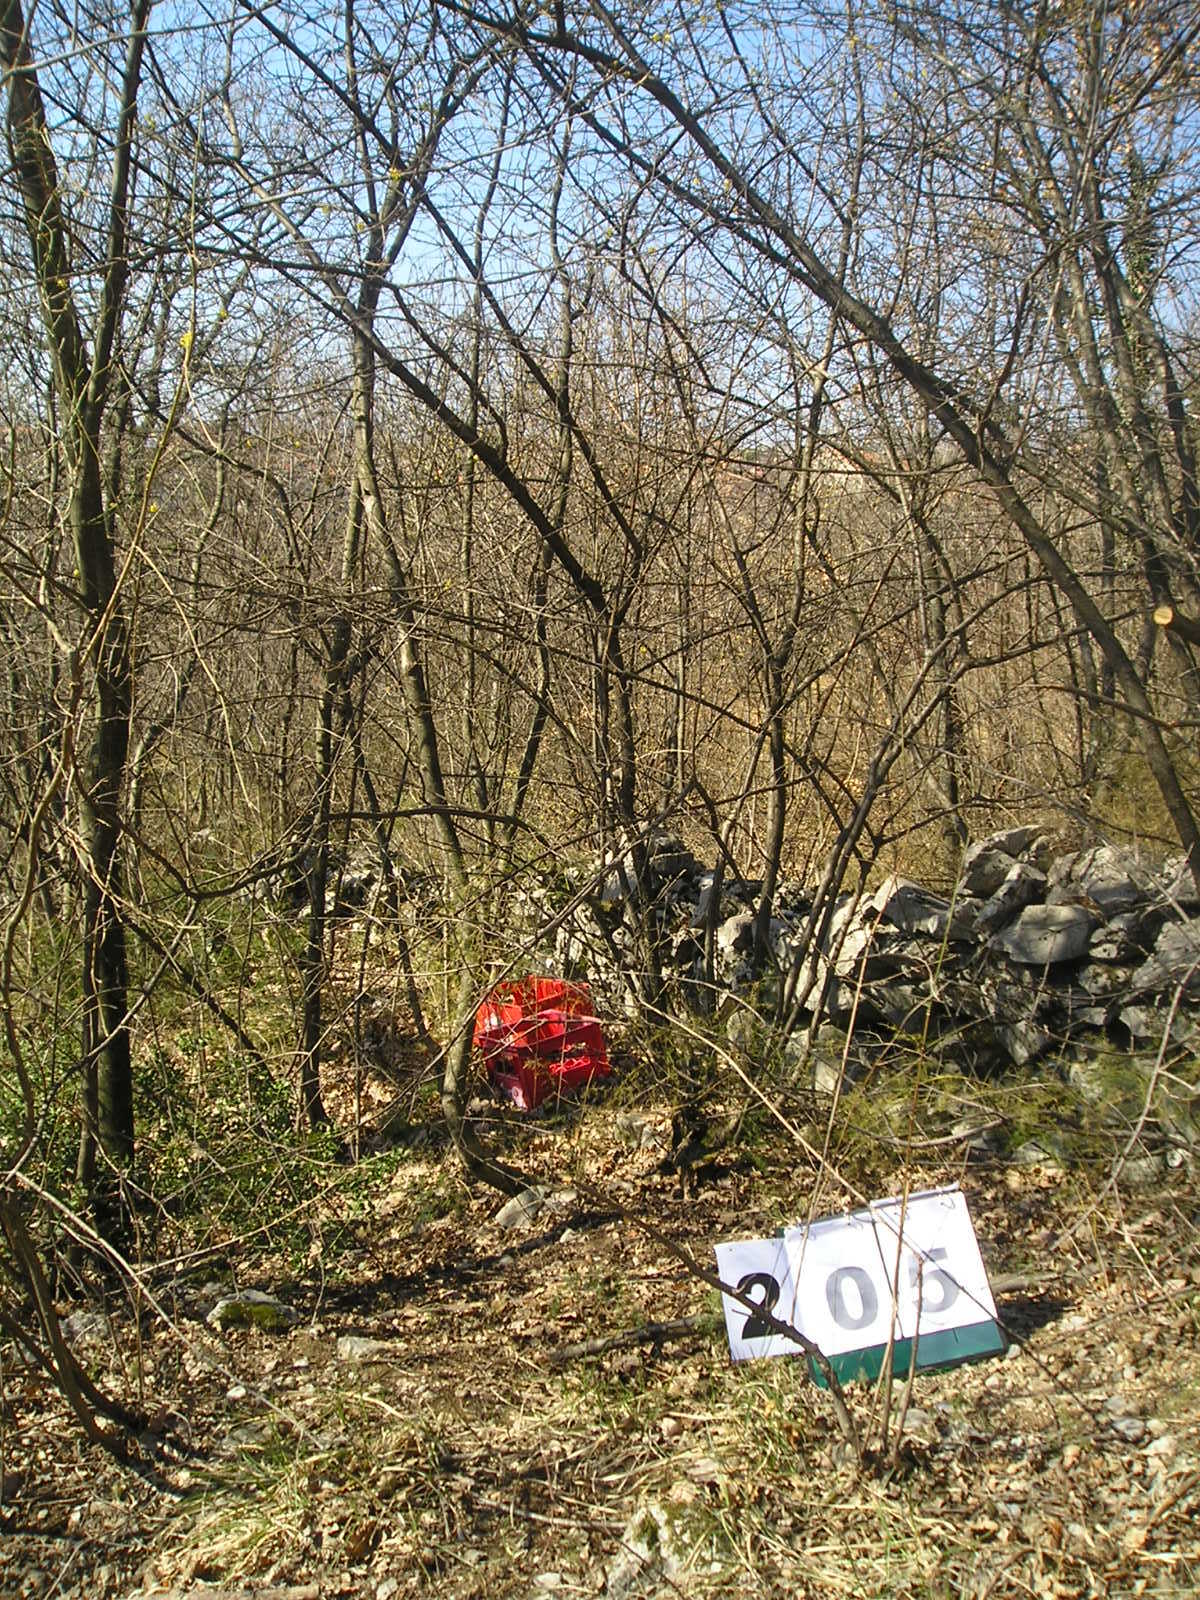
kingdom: Plantae
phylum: Tracheophyta
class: Magnoliopsida
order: Cornales
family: Cornaceae
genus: Cornus
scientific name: Cornus mas
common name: Cornelian-cherry
